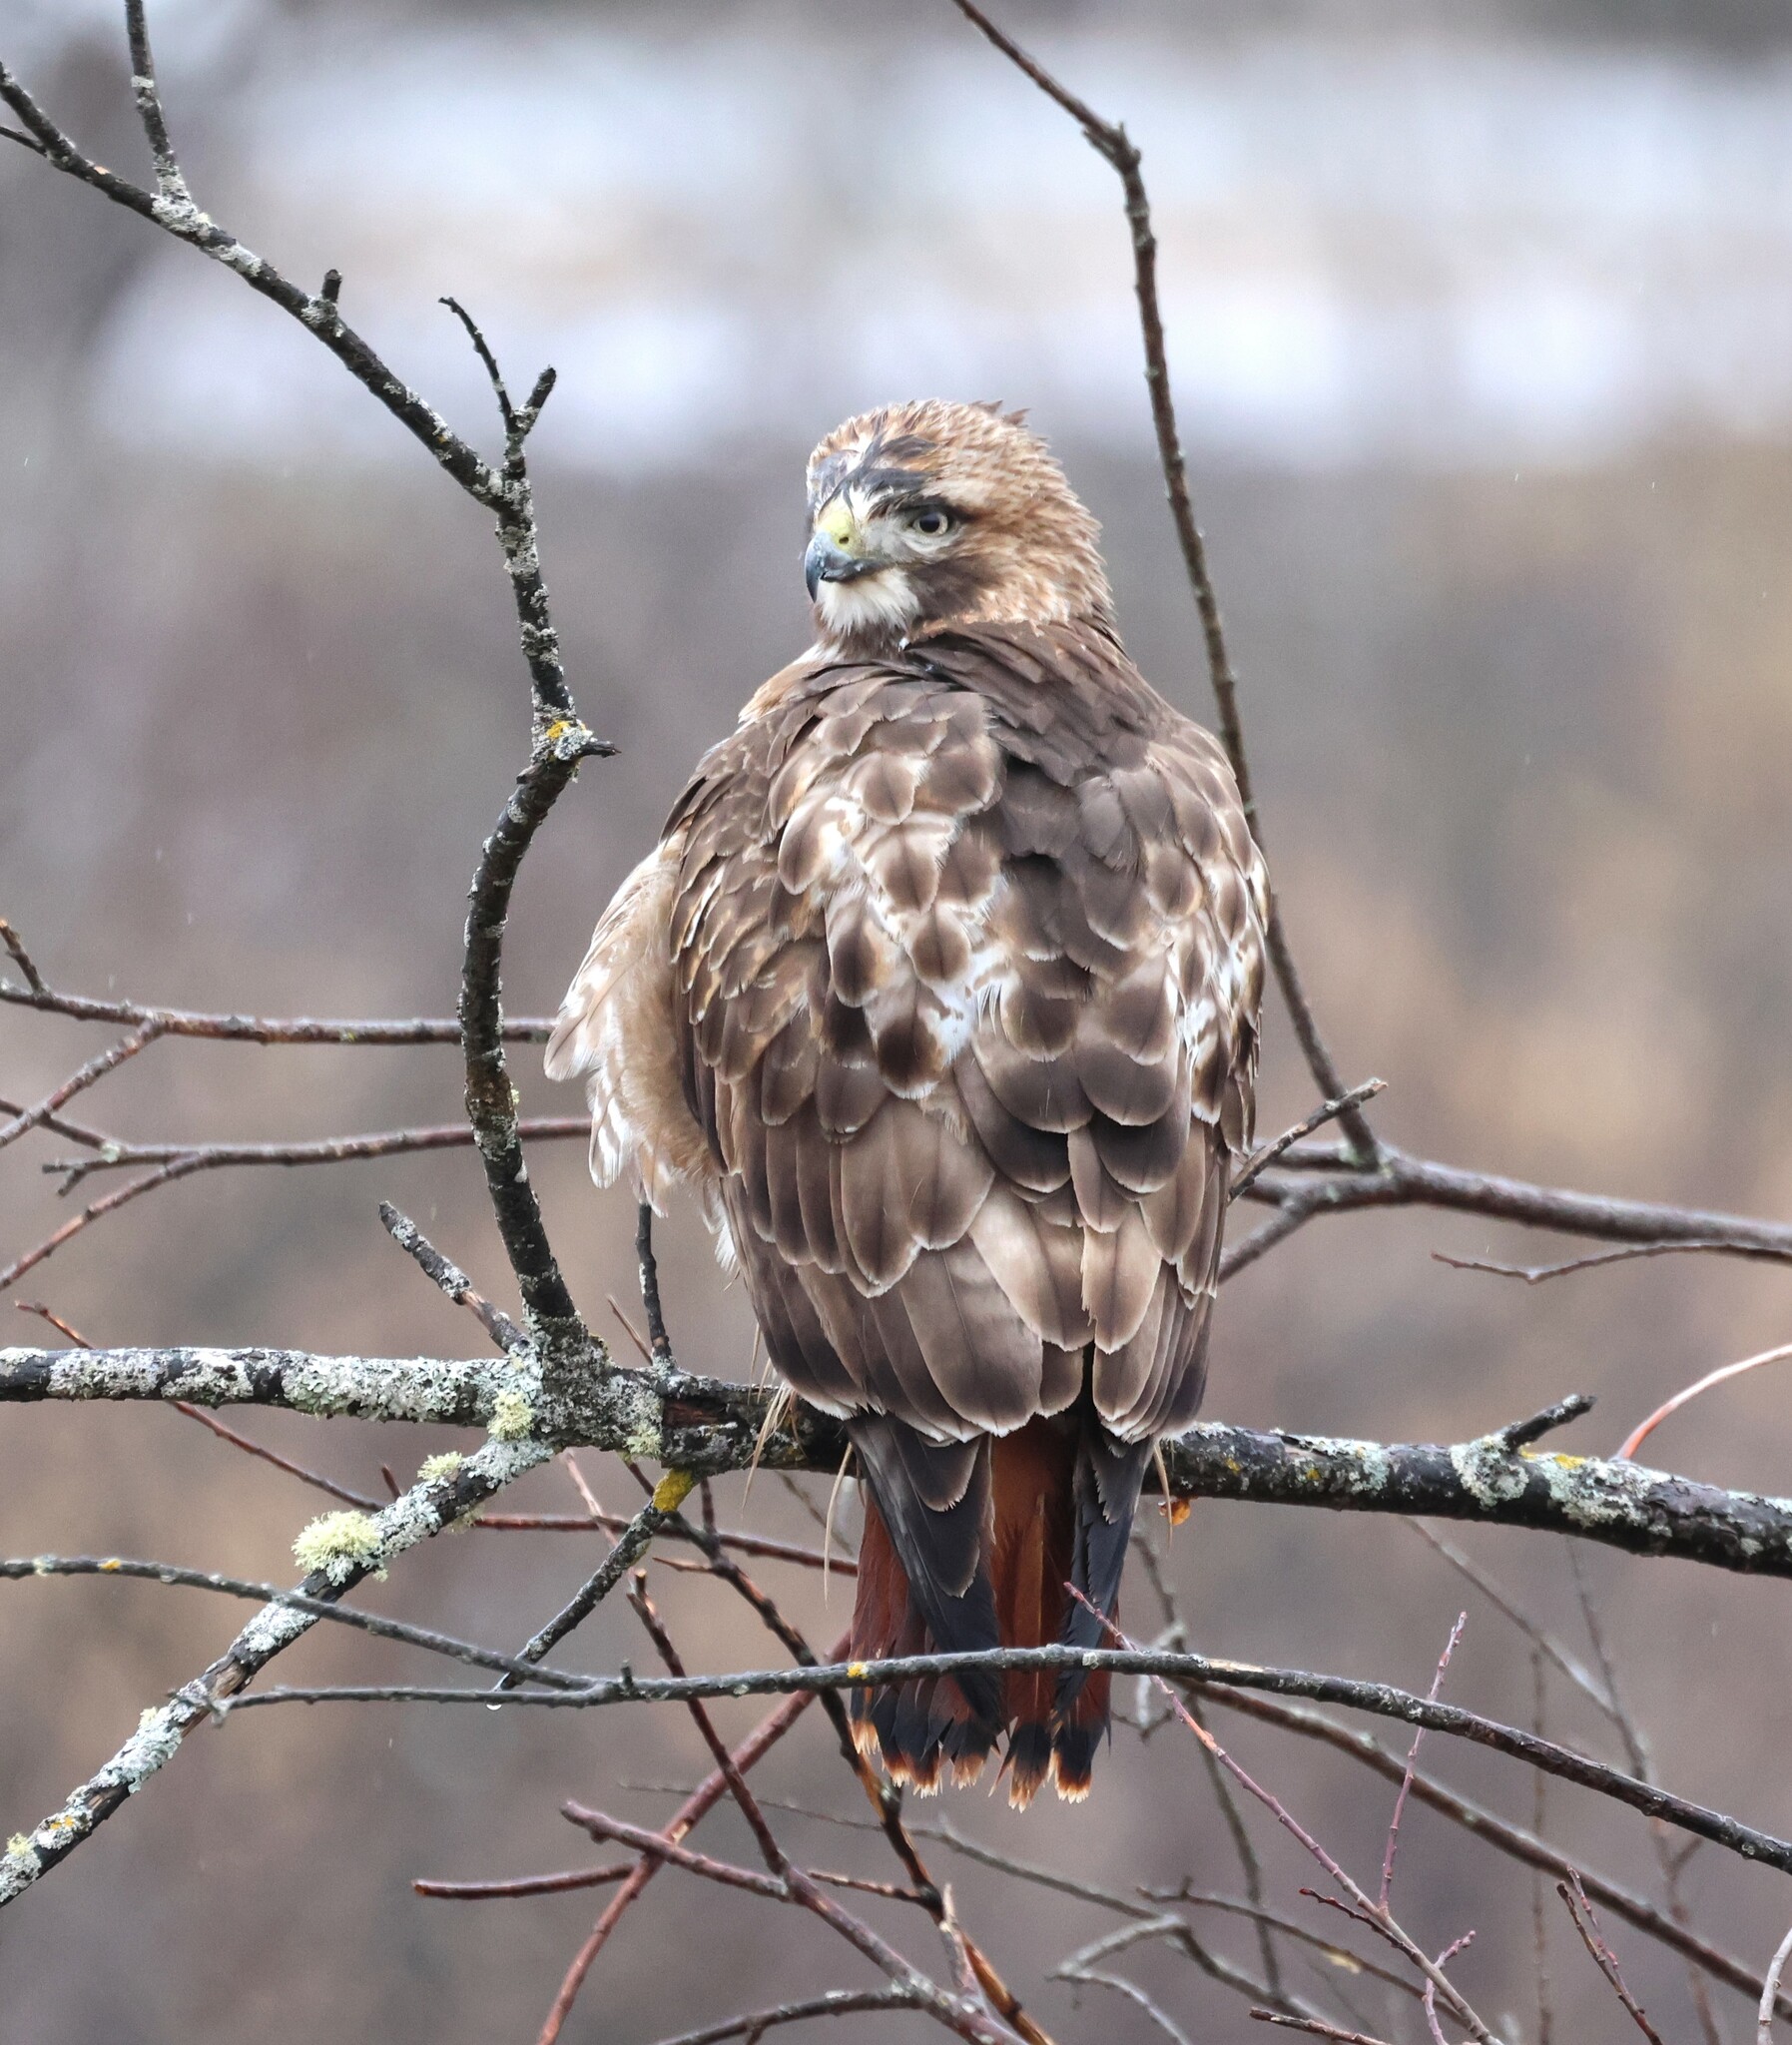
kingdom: Animalia
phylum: Chordata
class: Aves
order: Accipitriformes
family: Accipitridae
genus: Buteo
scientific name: Buteo jamaicensis
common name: Red-tailed hawk
